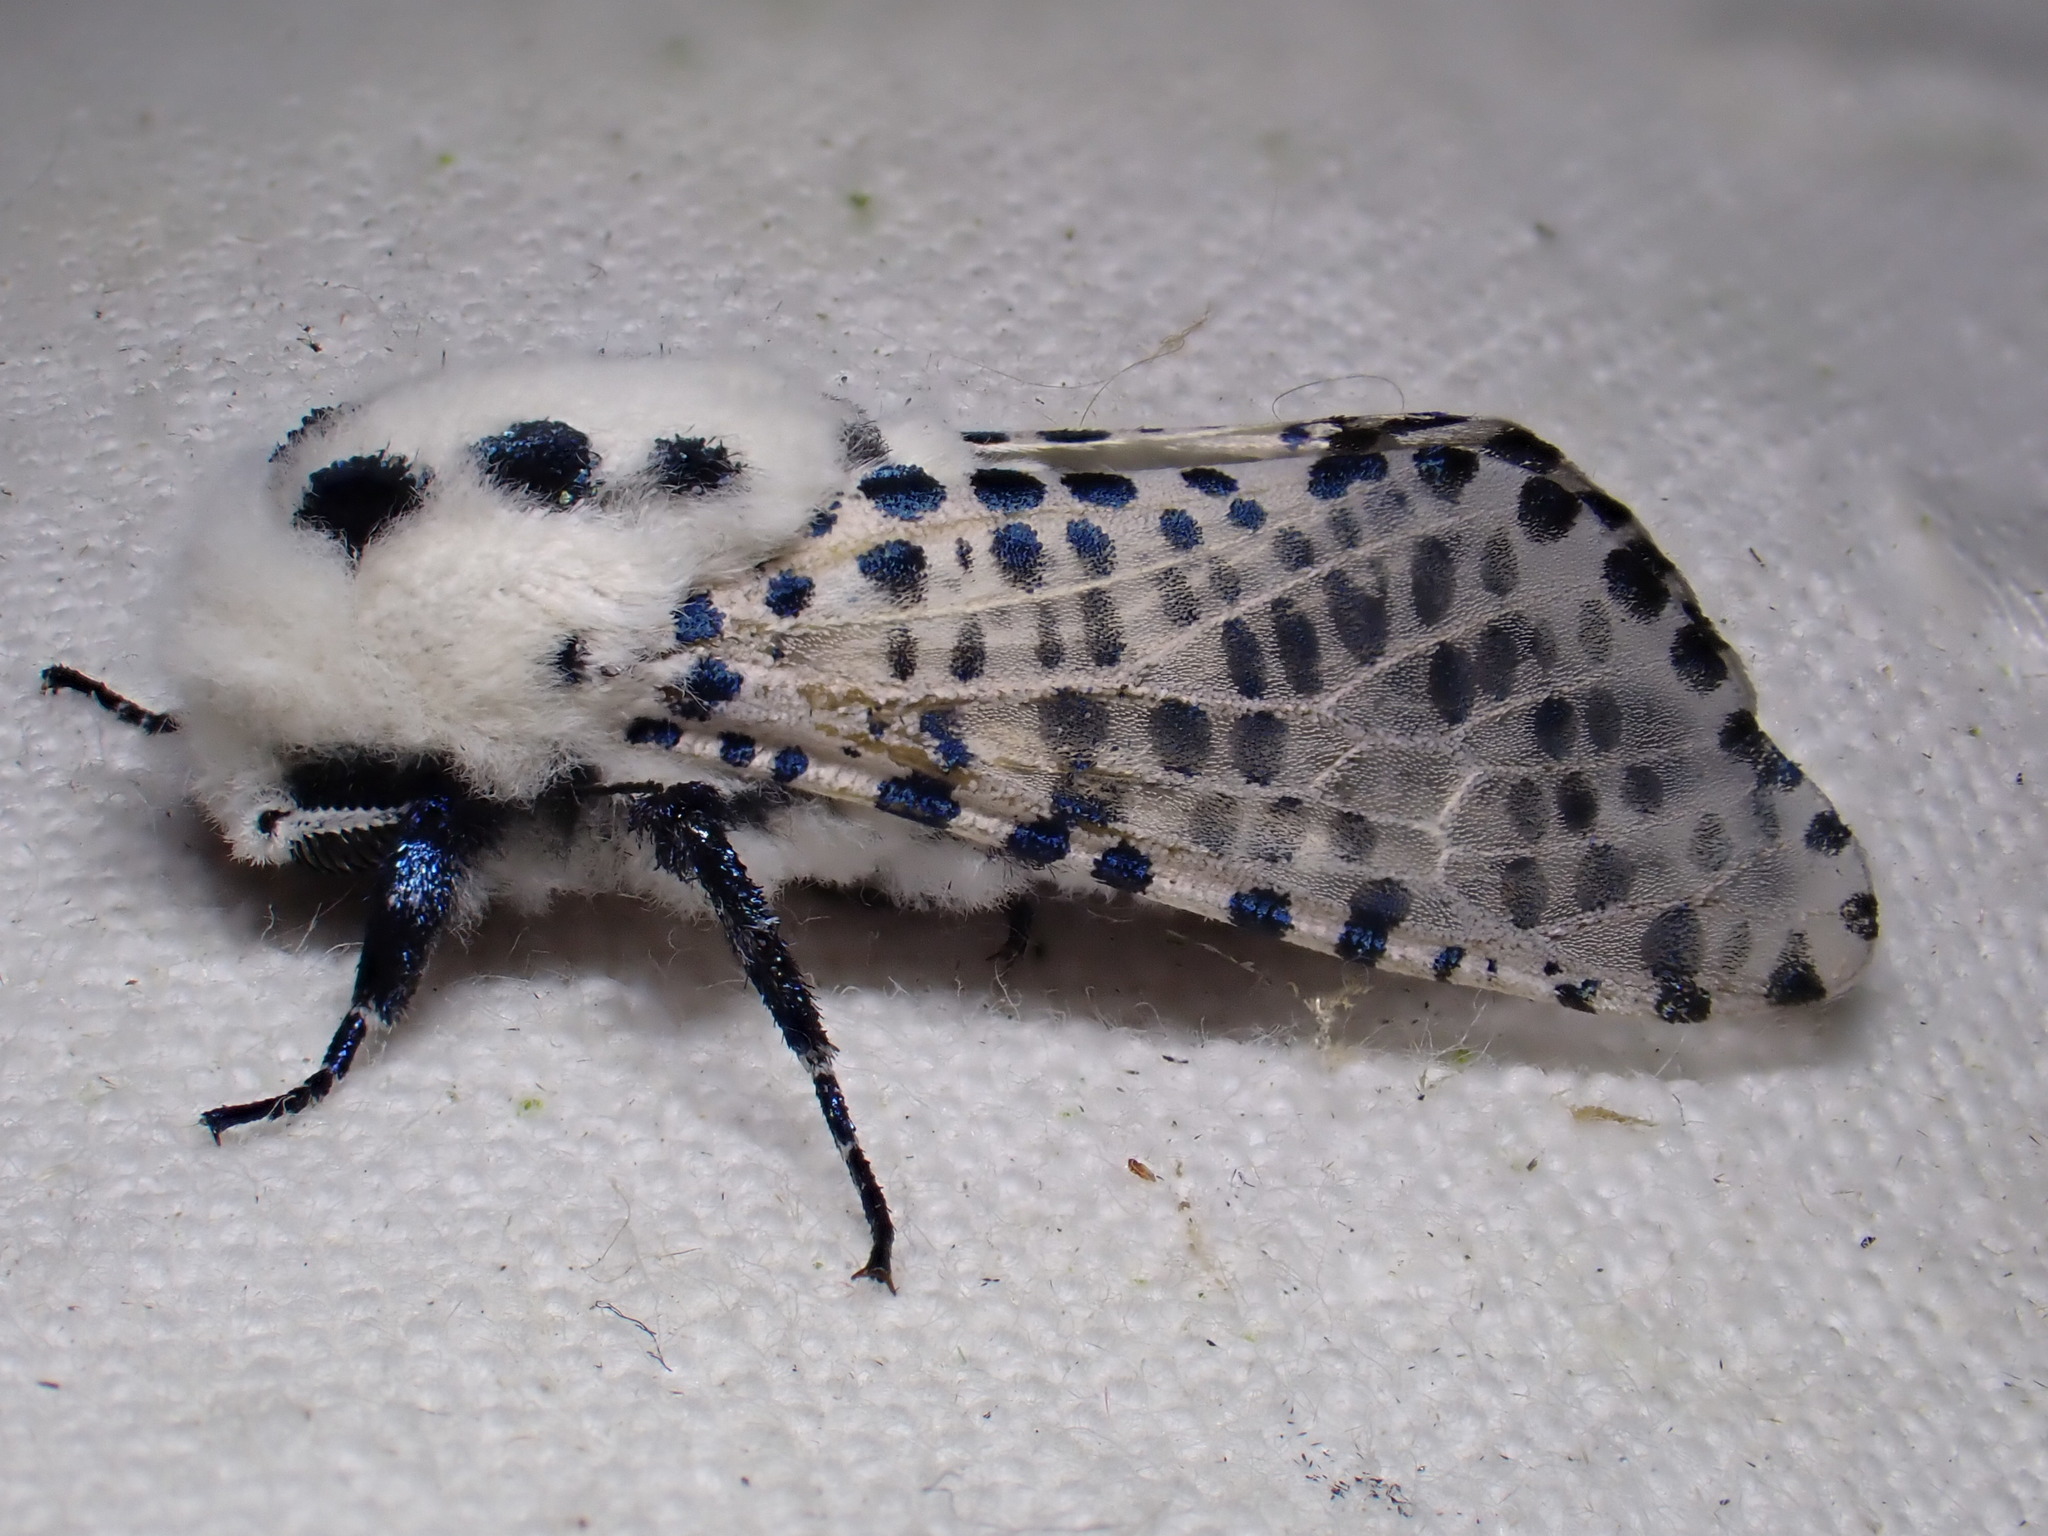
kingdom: Animalia
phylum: Arthropoda
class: Insecta
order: Lepidoptera
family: Cossidae
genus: Zeuzera
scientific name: Zeuzera pyrina
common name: Leopard moth
